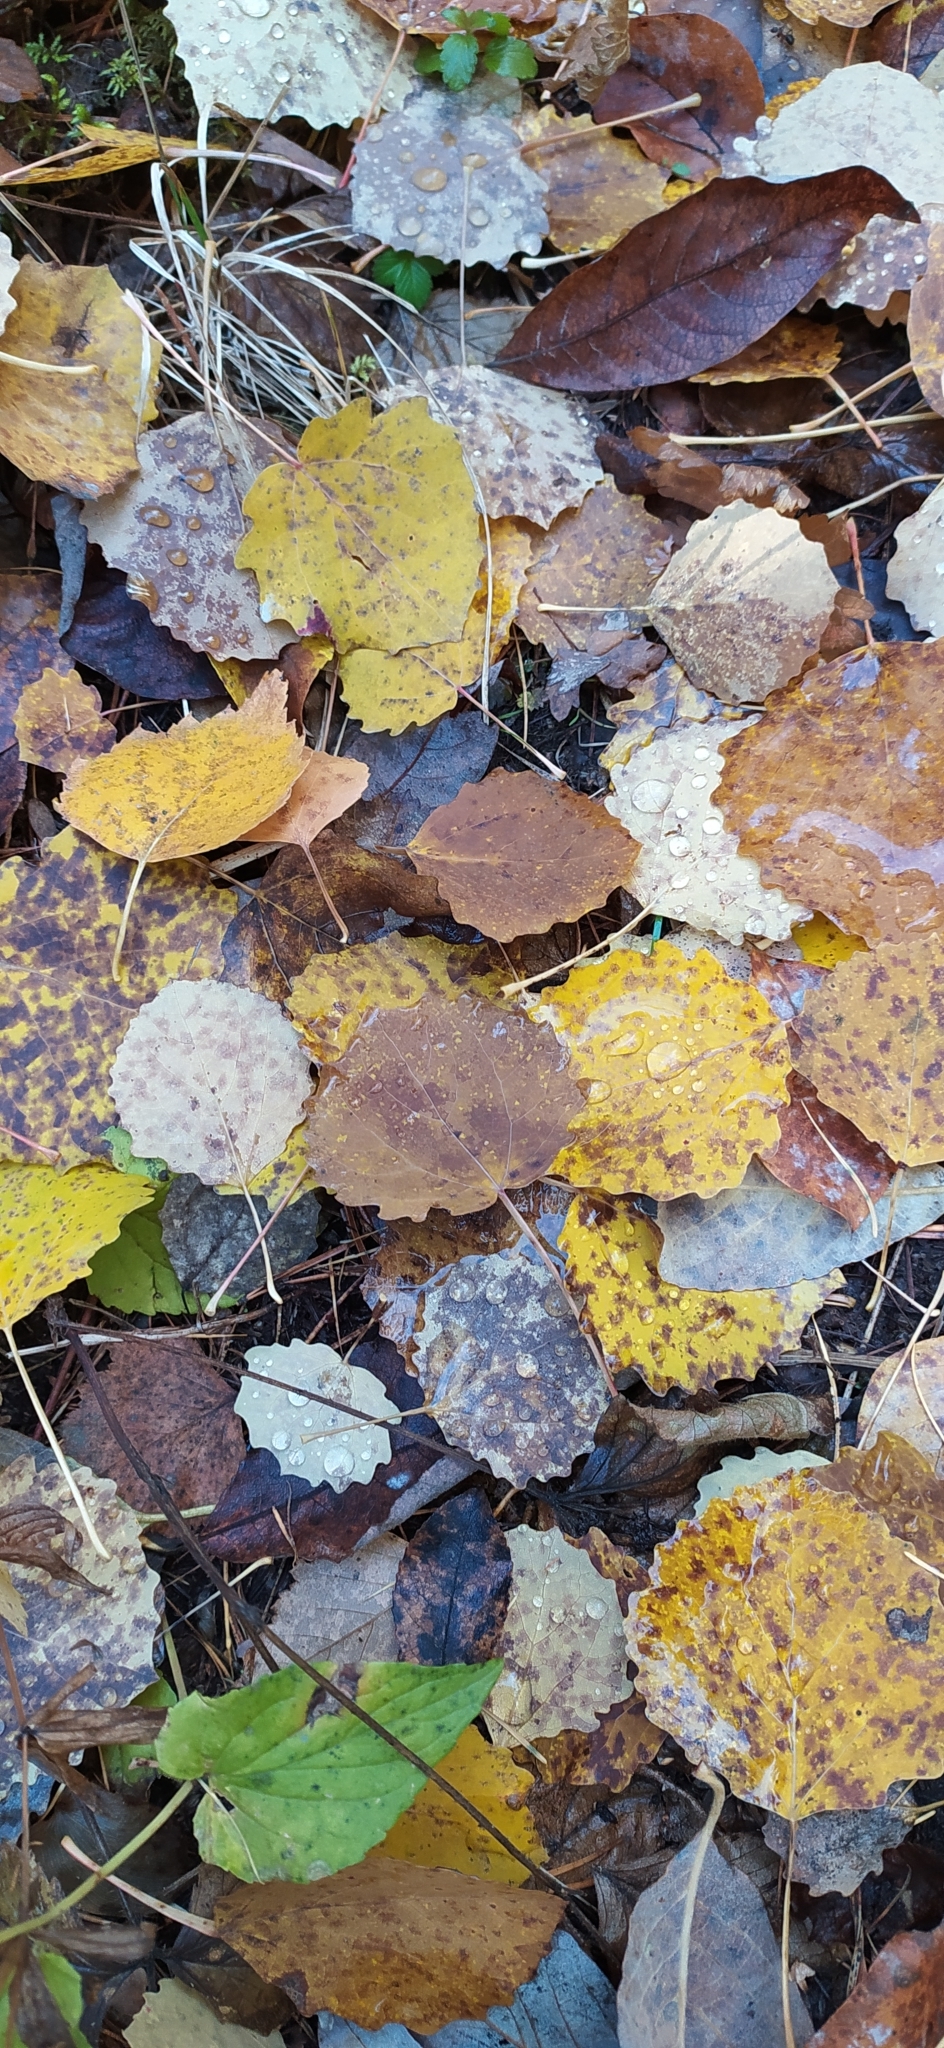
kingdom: Plantae
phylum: Tracheophyta
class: Magnoliopsida
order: Malpighiales
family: Salicaceae
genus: Populus
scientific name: Populus tremula
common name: European aspen
